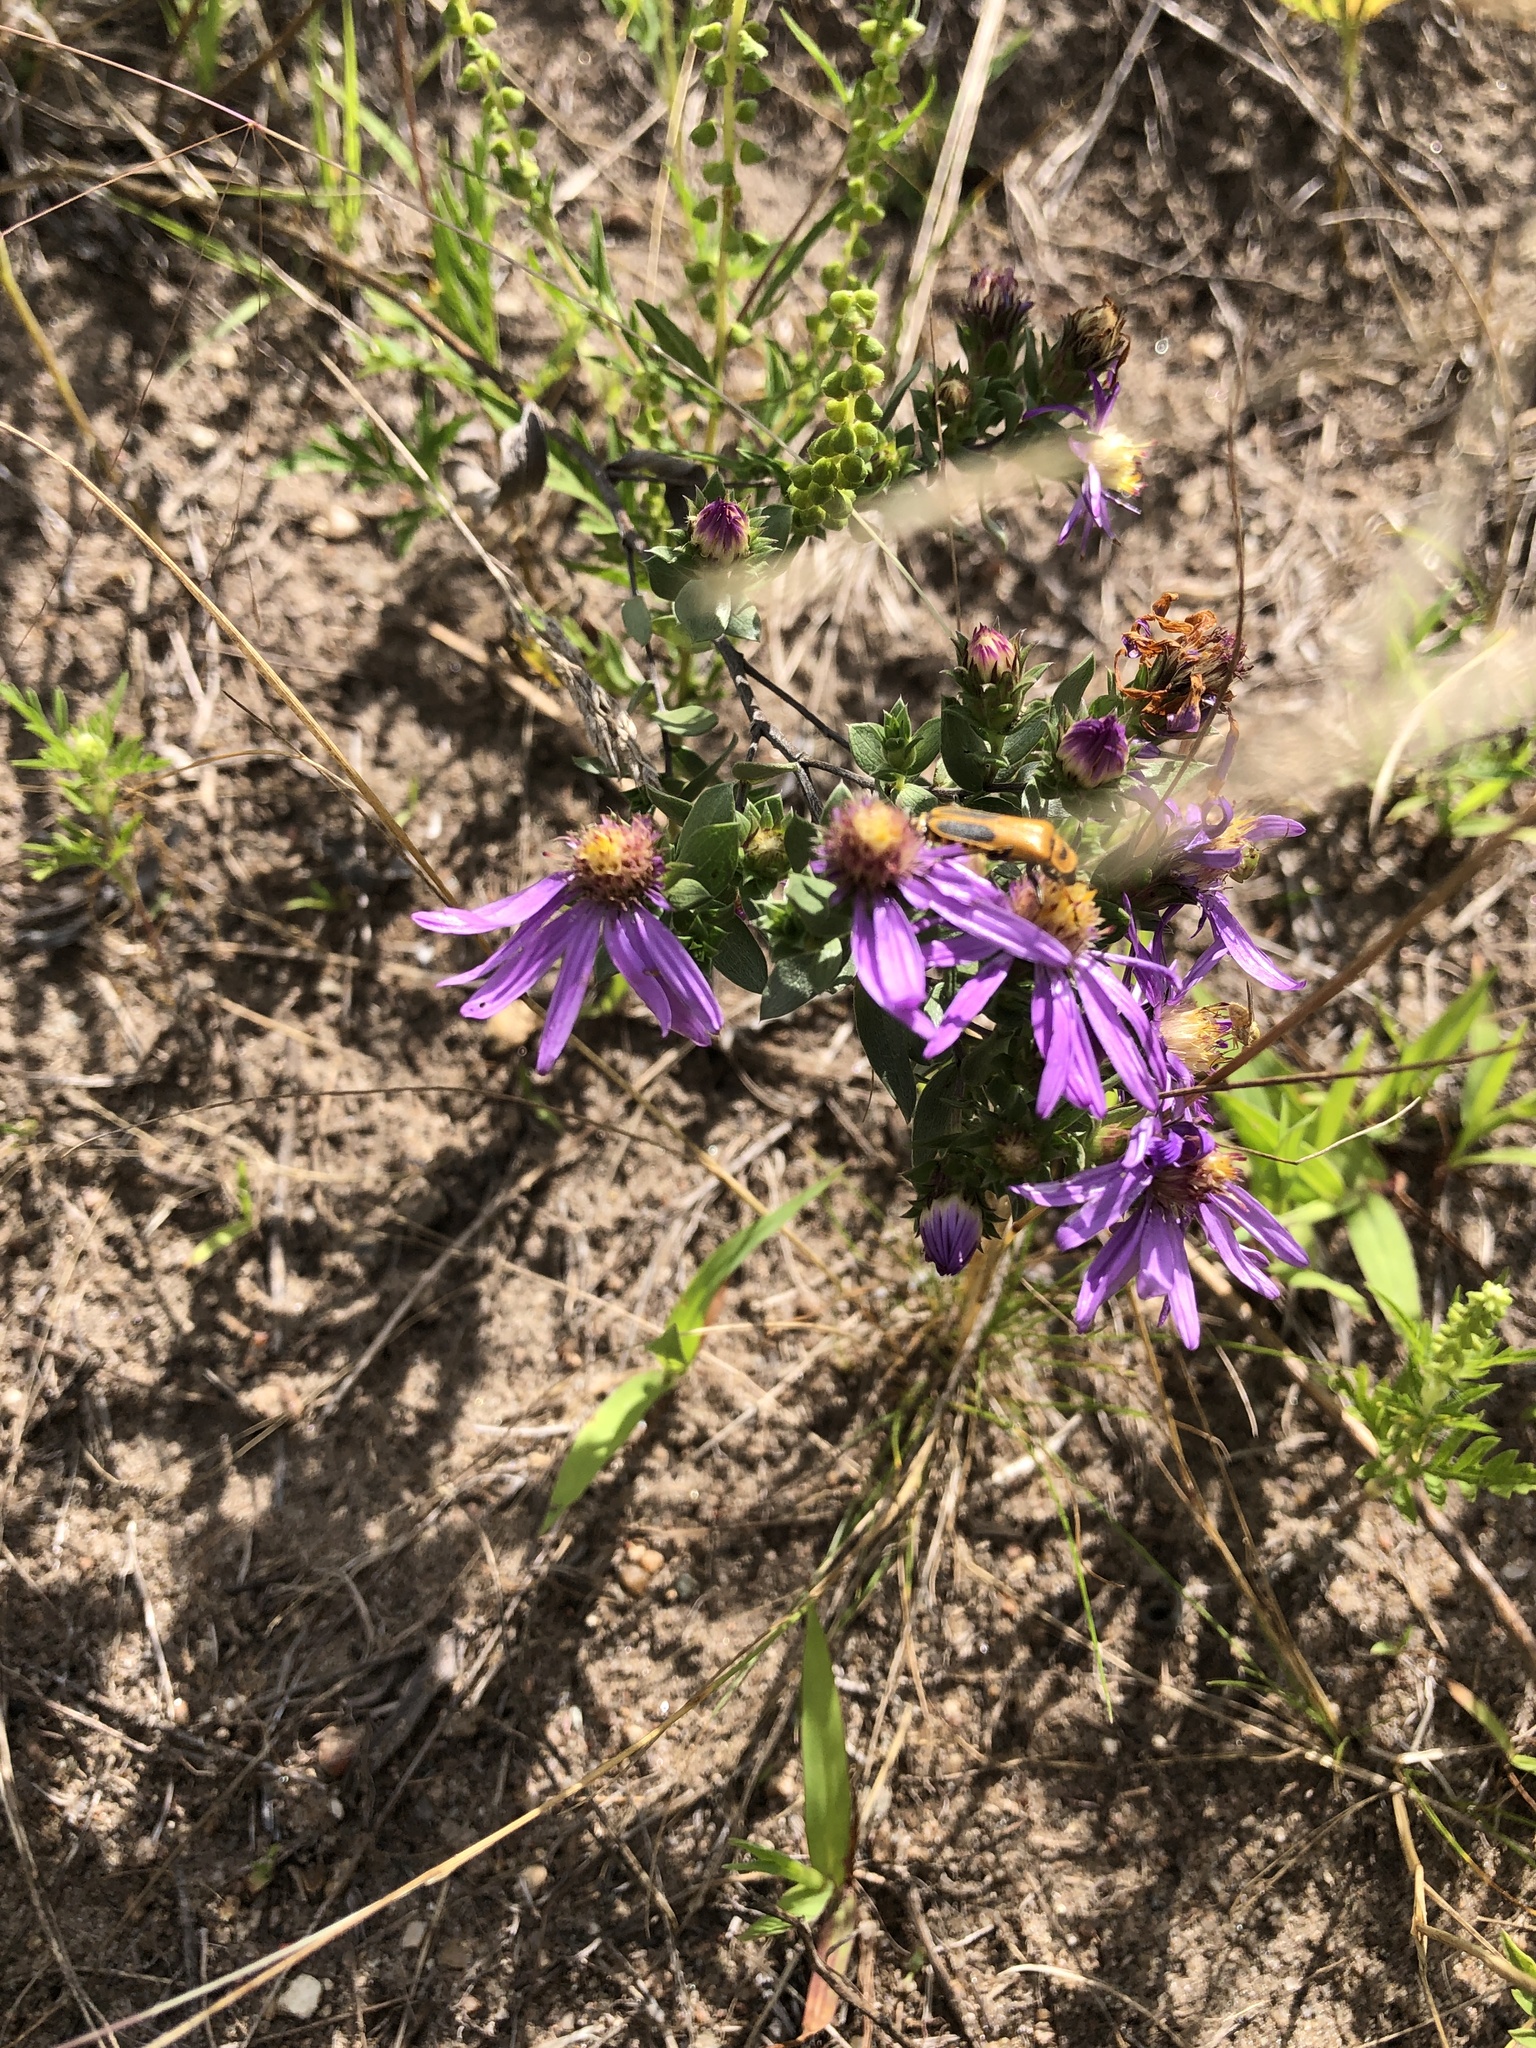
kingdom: Plantae
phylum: Tracheophyta
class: Magnoliopsida
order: Asterales
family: Asteraceae
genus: Symphyotrichum
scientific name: Symphyotrichum sericeum
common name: Silky aster
